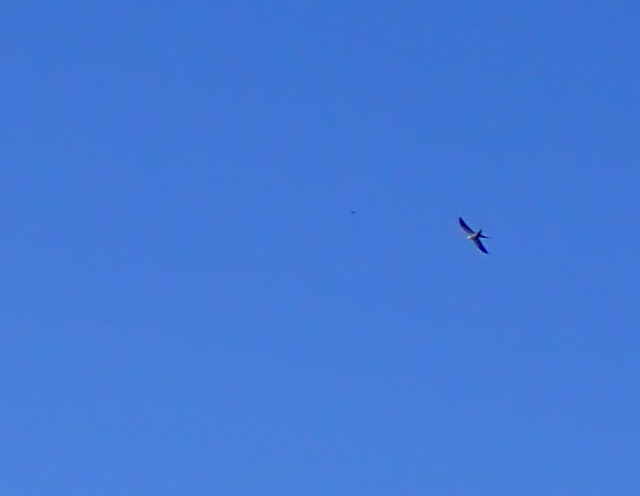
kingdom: Animalia
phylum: Chordata
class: Aves
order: Accipitriformes
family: Accipitridae
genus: Elanoides
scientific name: Elanoides forficatus
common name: Swallow-tailed kite
